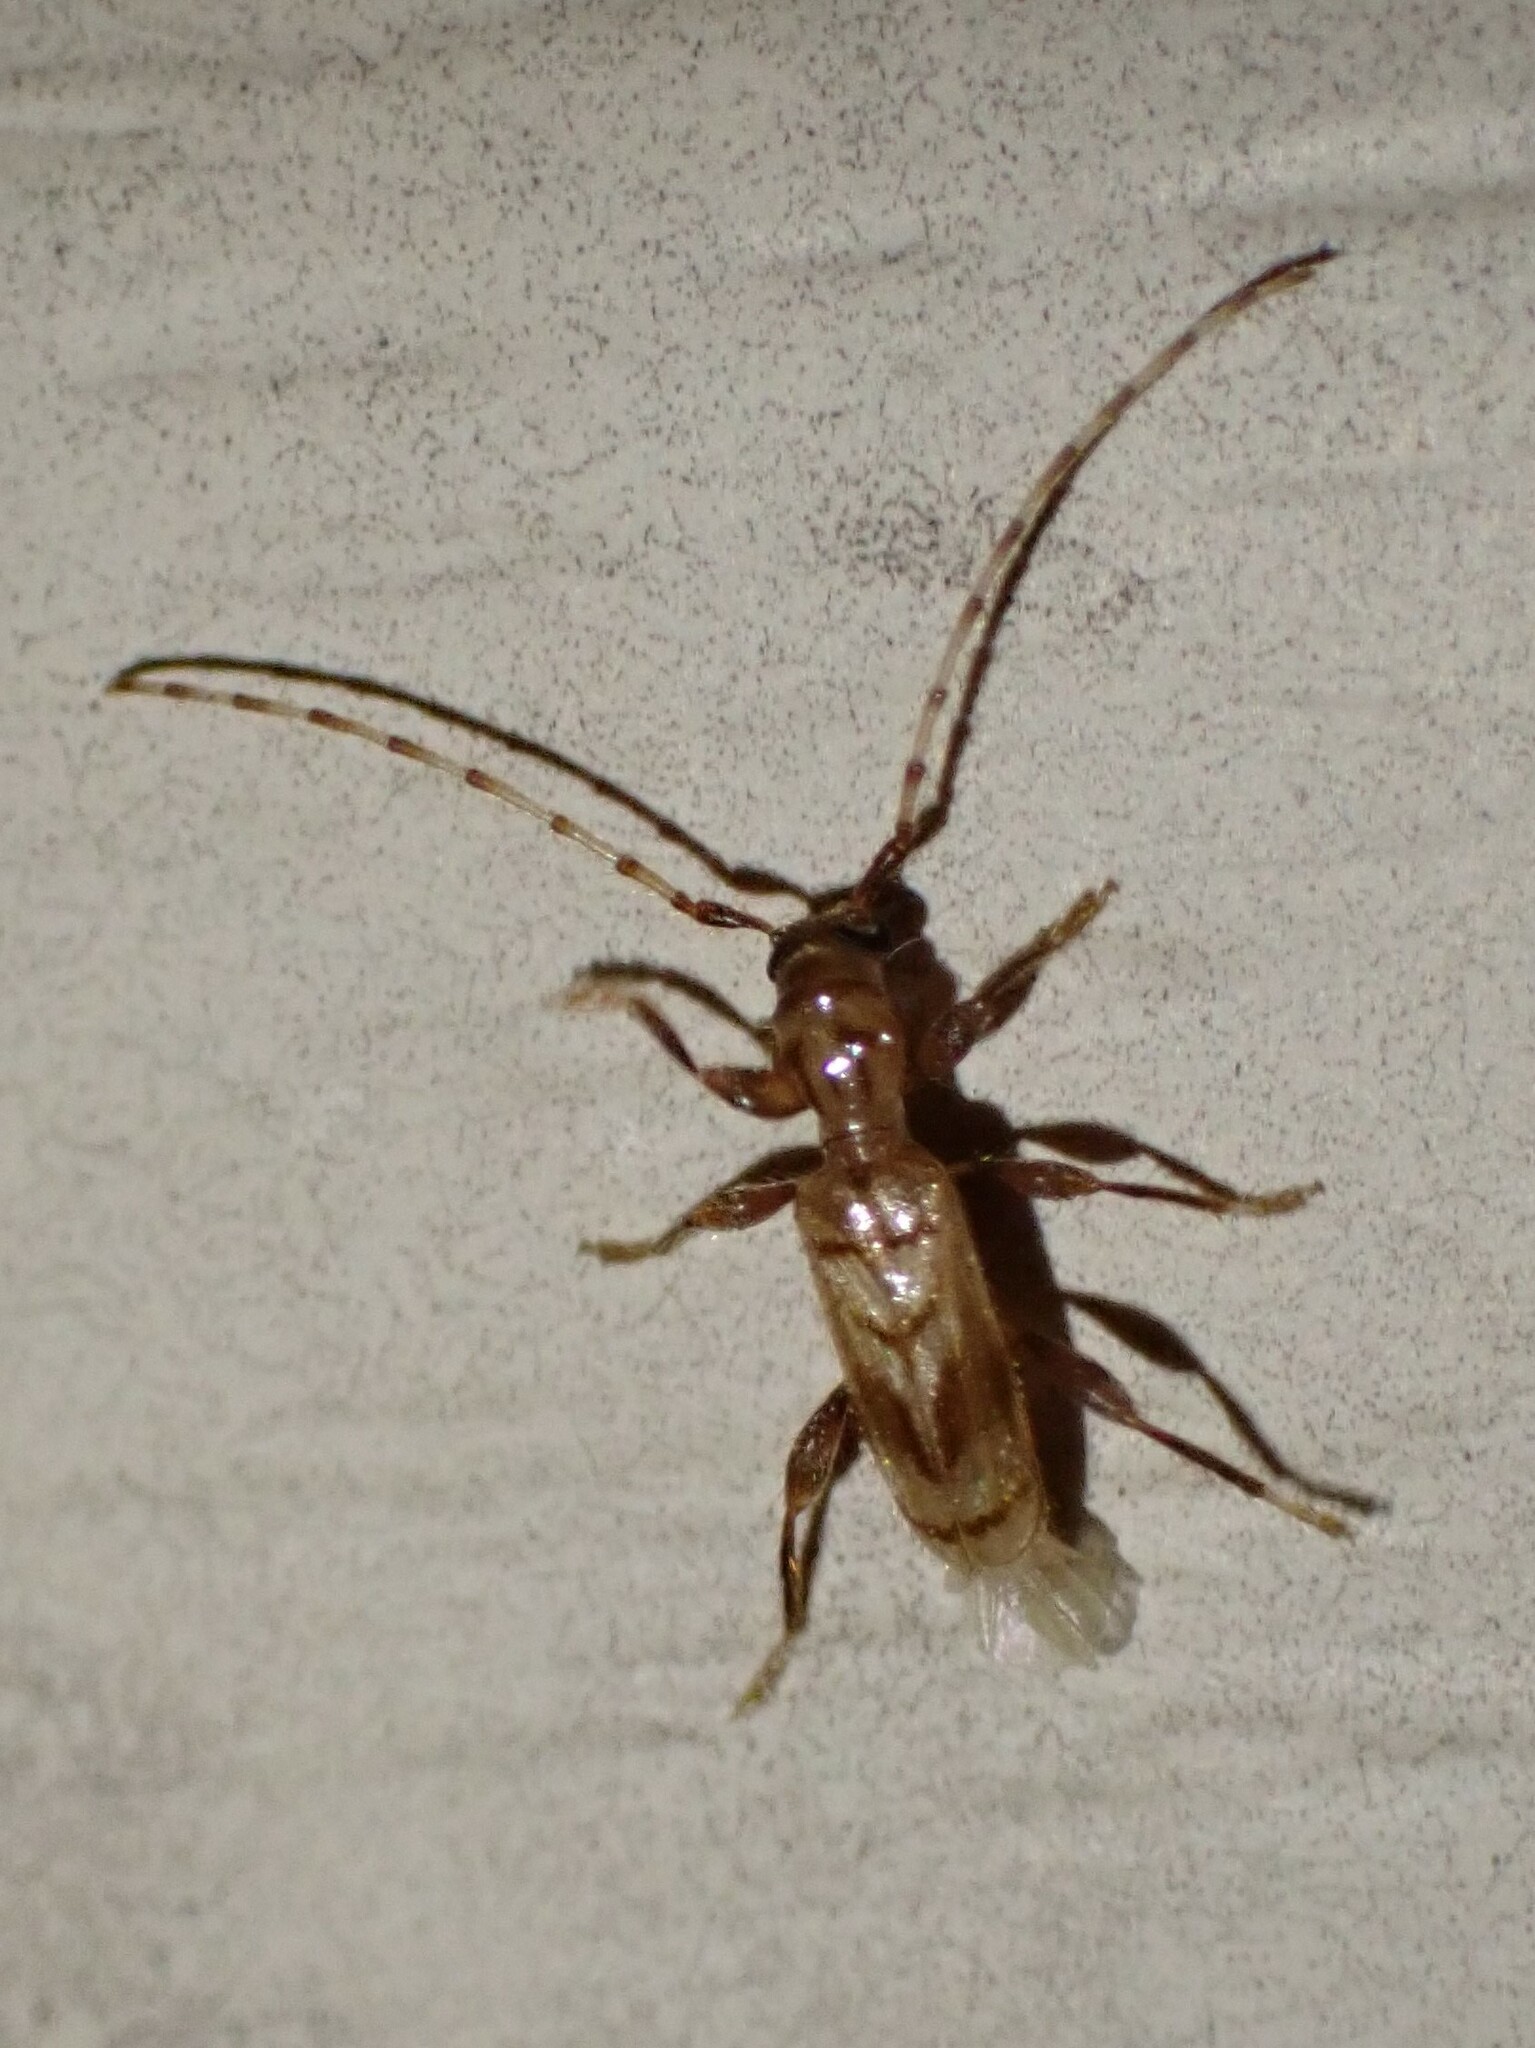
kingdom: Animalia
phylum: Arthropoda
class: Insecta
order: Coleoptera
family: Cerambycidae
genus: Obrium
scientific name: Obrium maculatum
